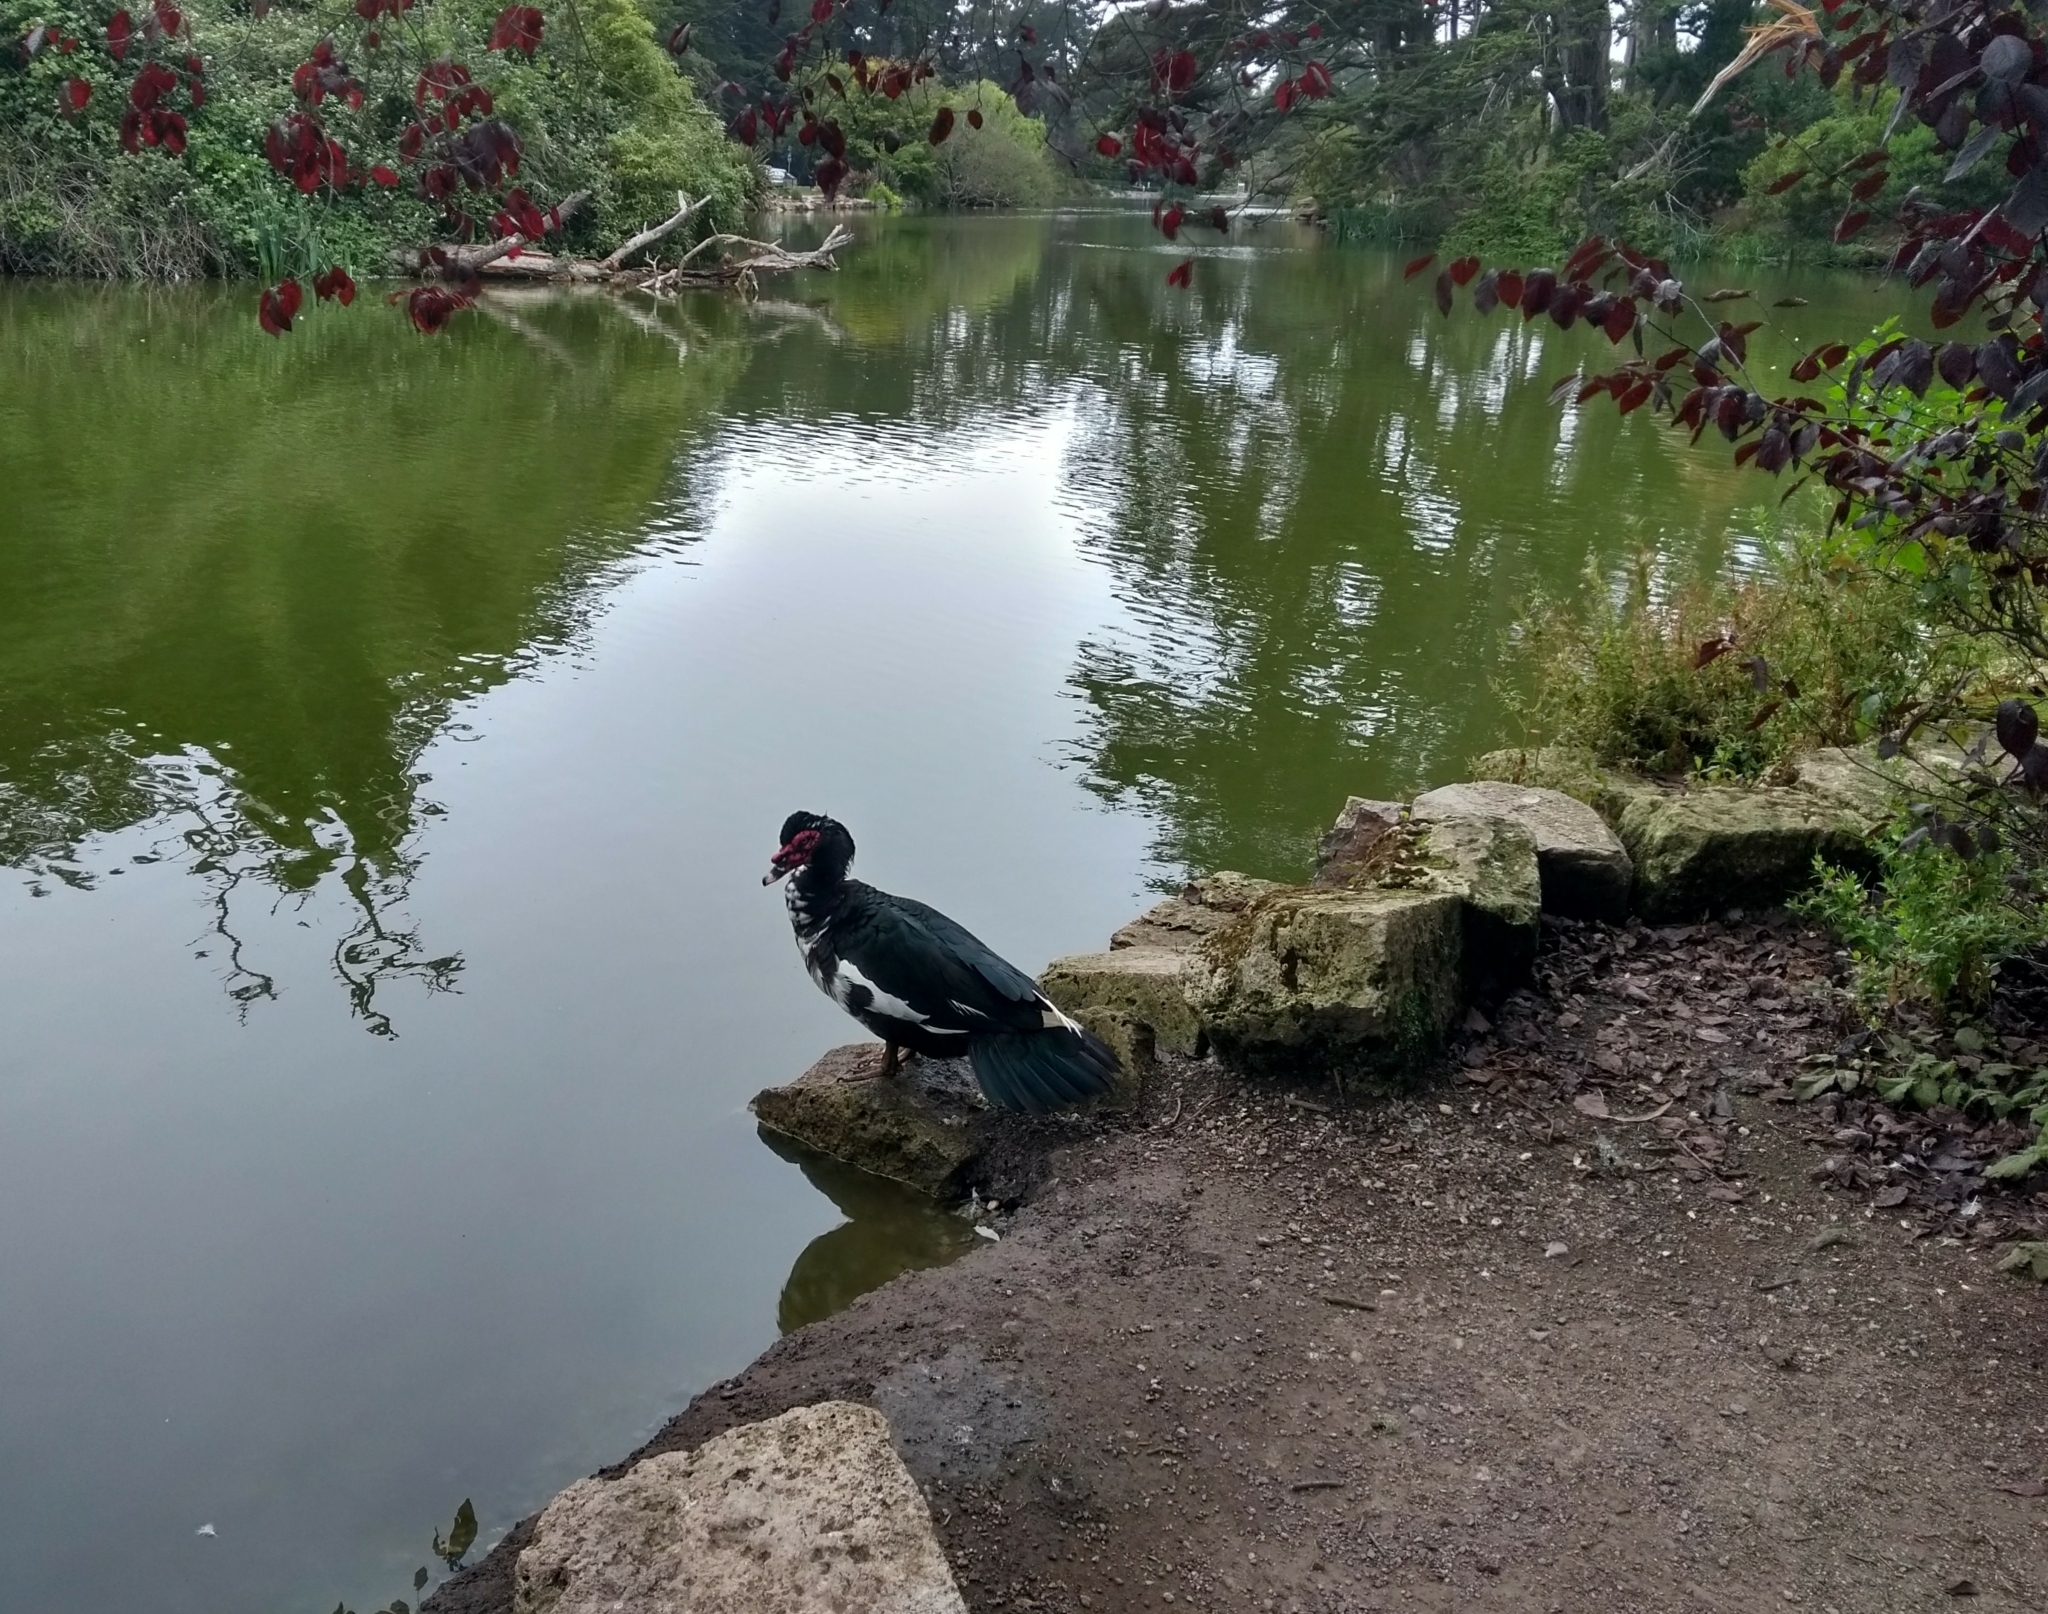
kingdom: Animalia
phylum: Chordata
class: Aves
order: Anseriformes
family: Anatidae
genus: Cairina
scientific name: Cairina moschata
